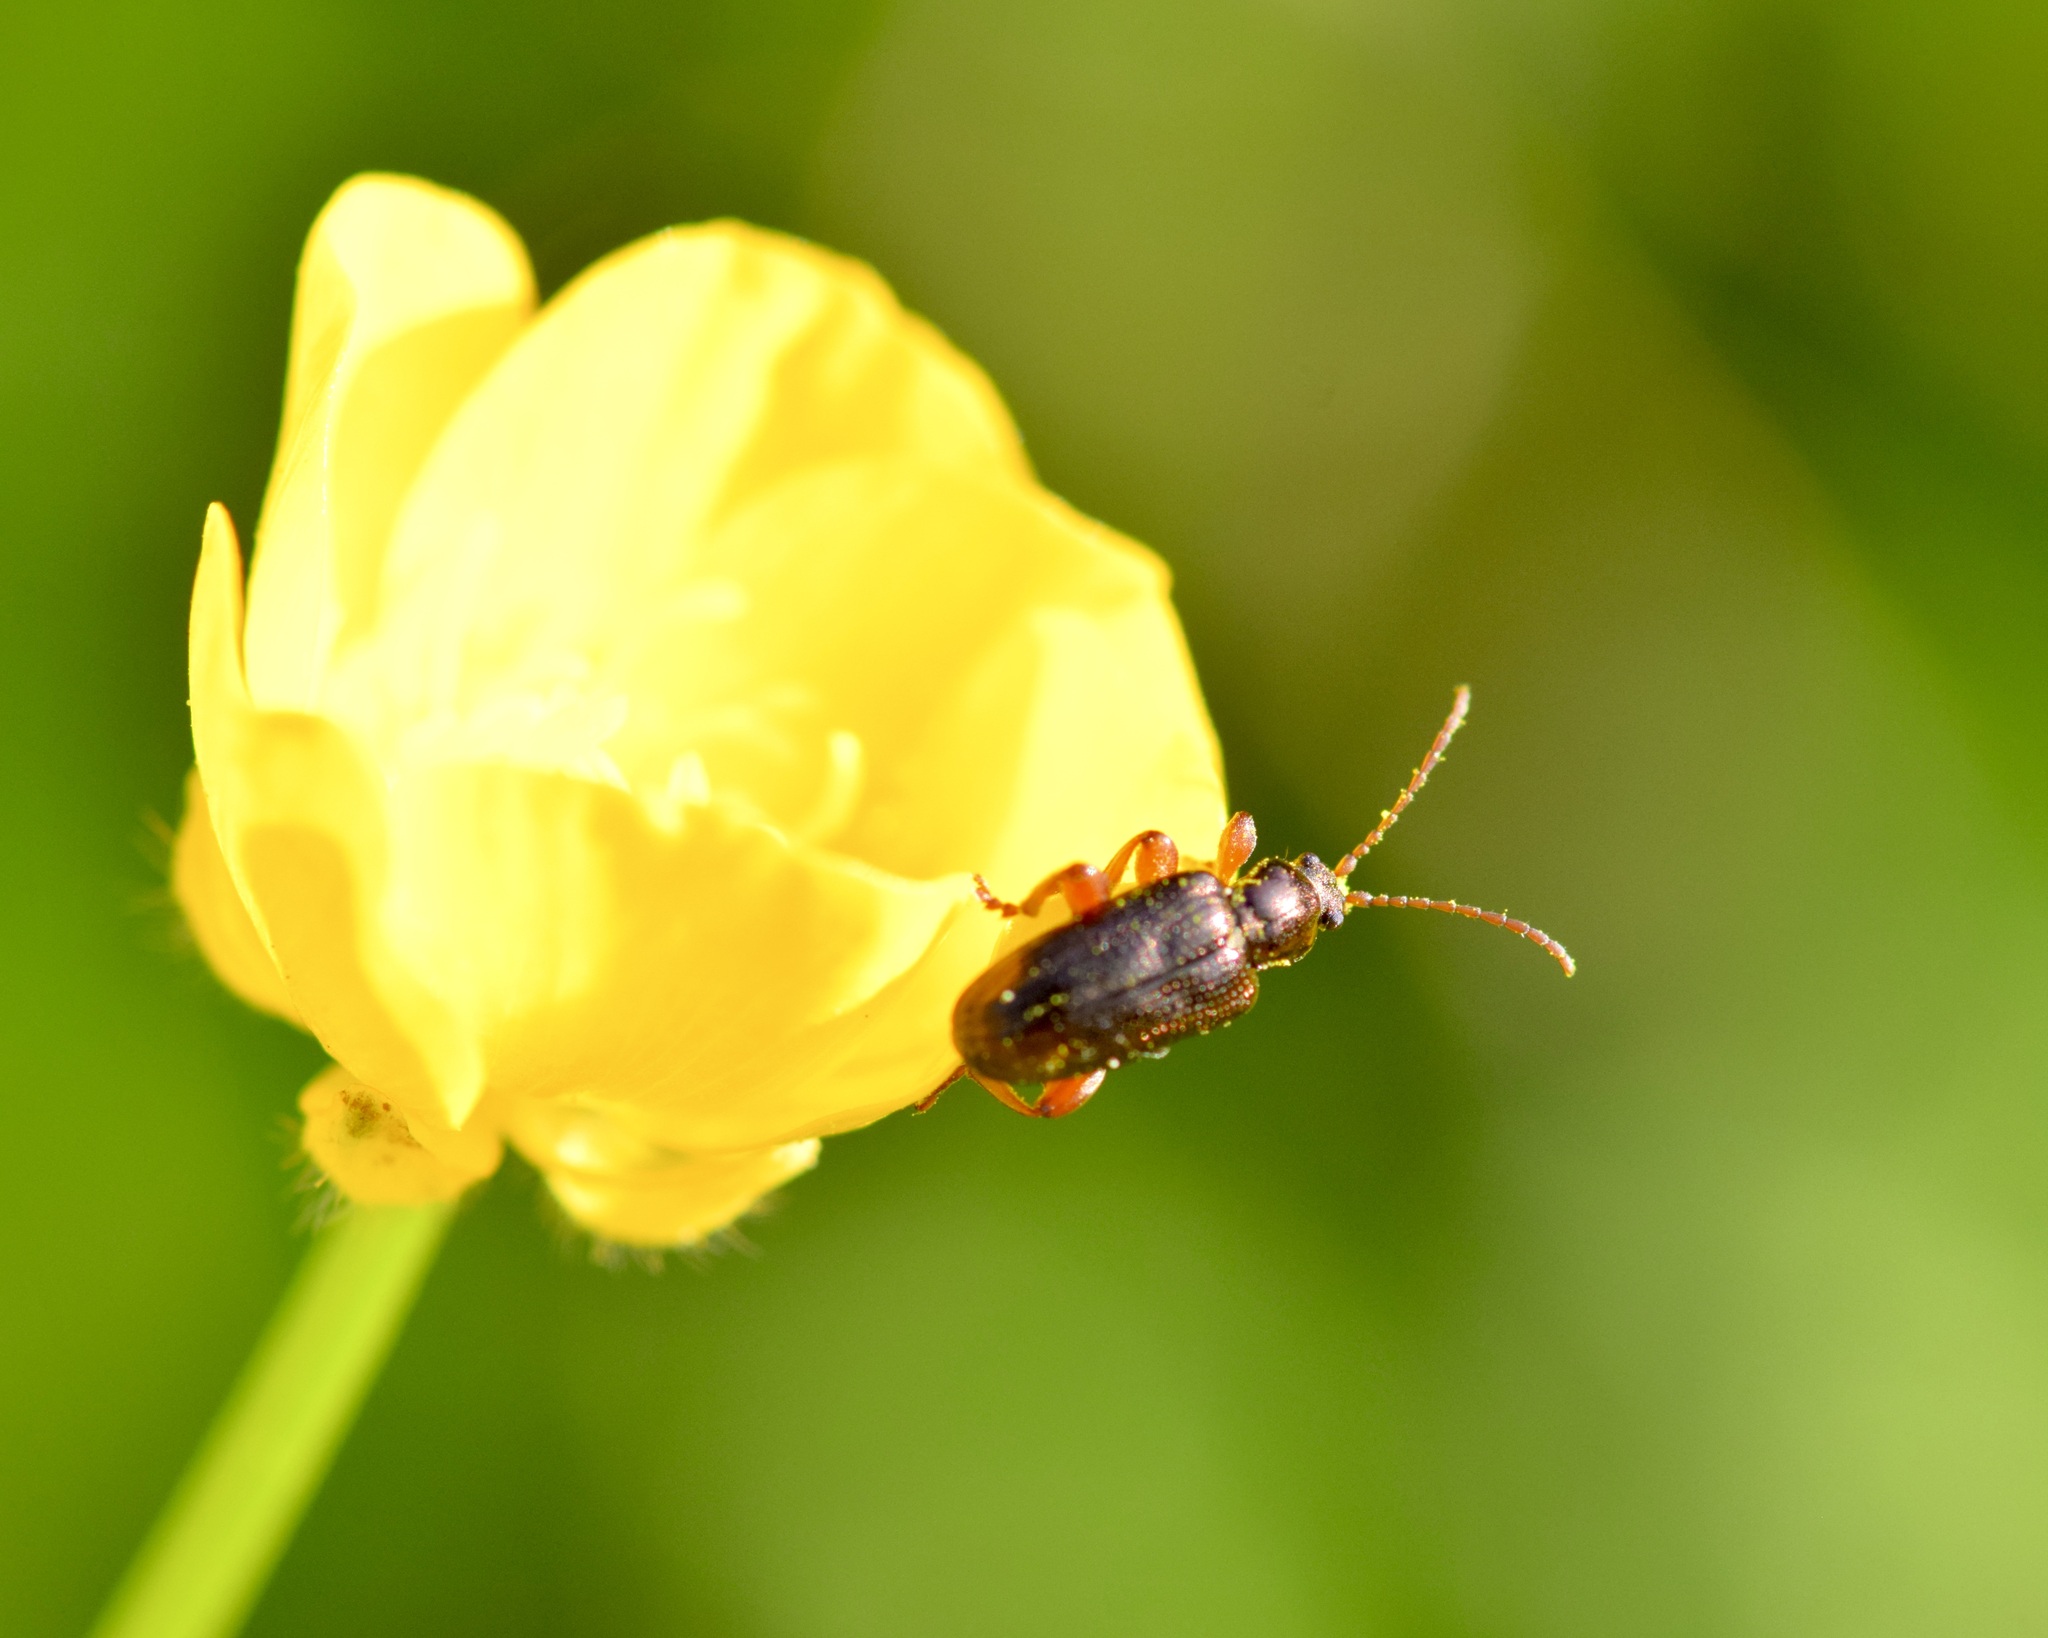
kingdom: Animalia
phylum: Arthropoda
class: Insecta
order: Coleoptera
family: Chrysomelidae
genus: Plateumaris
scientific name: Plateumaris rufa
